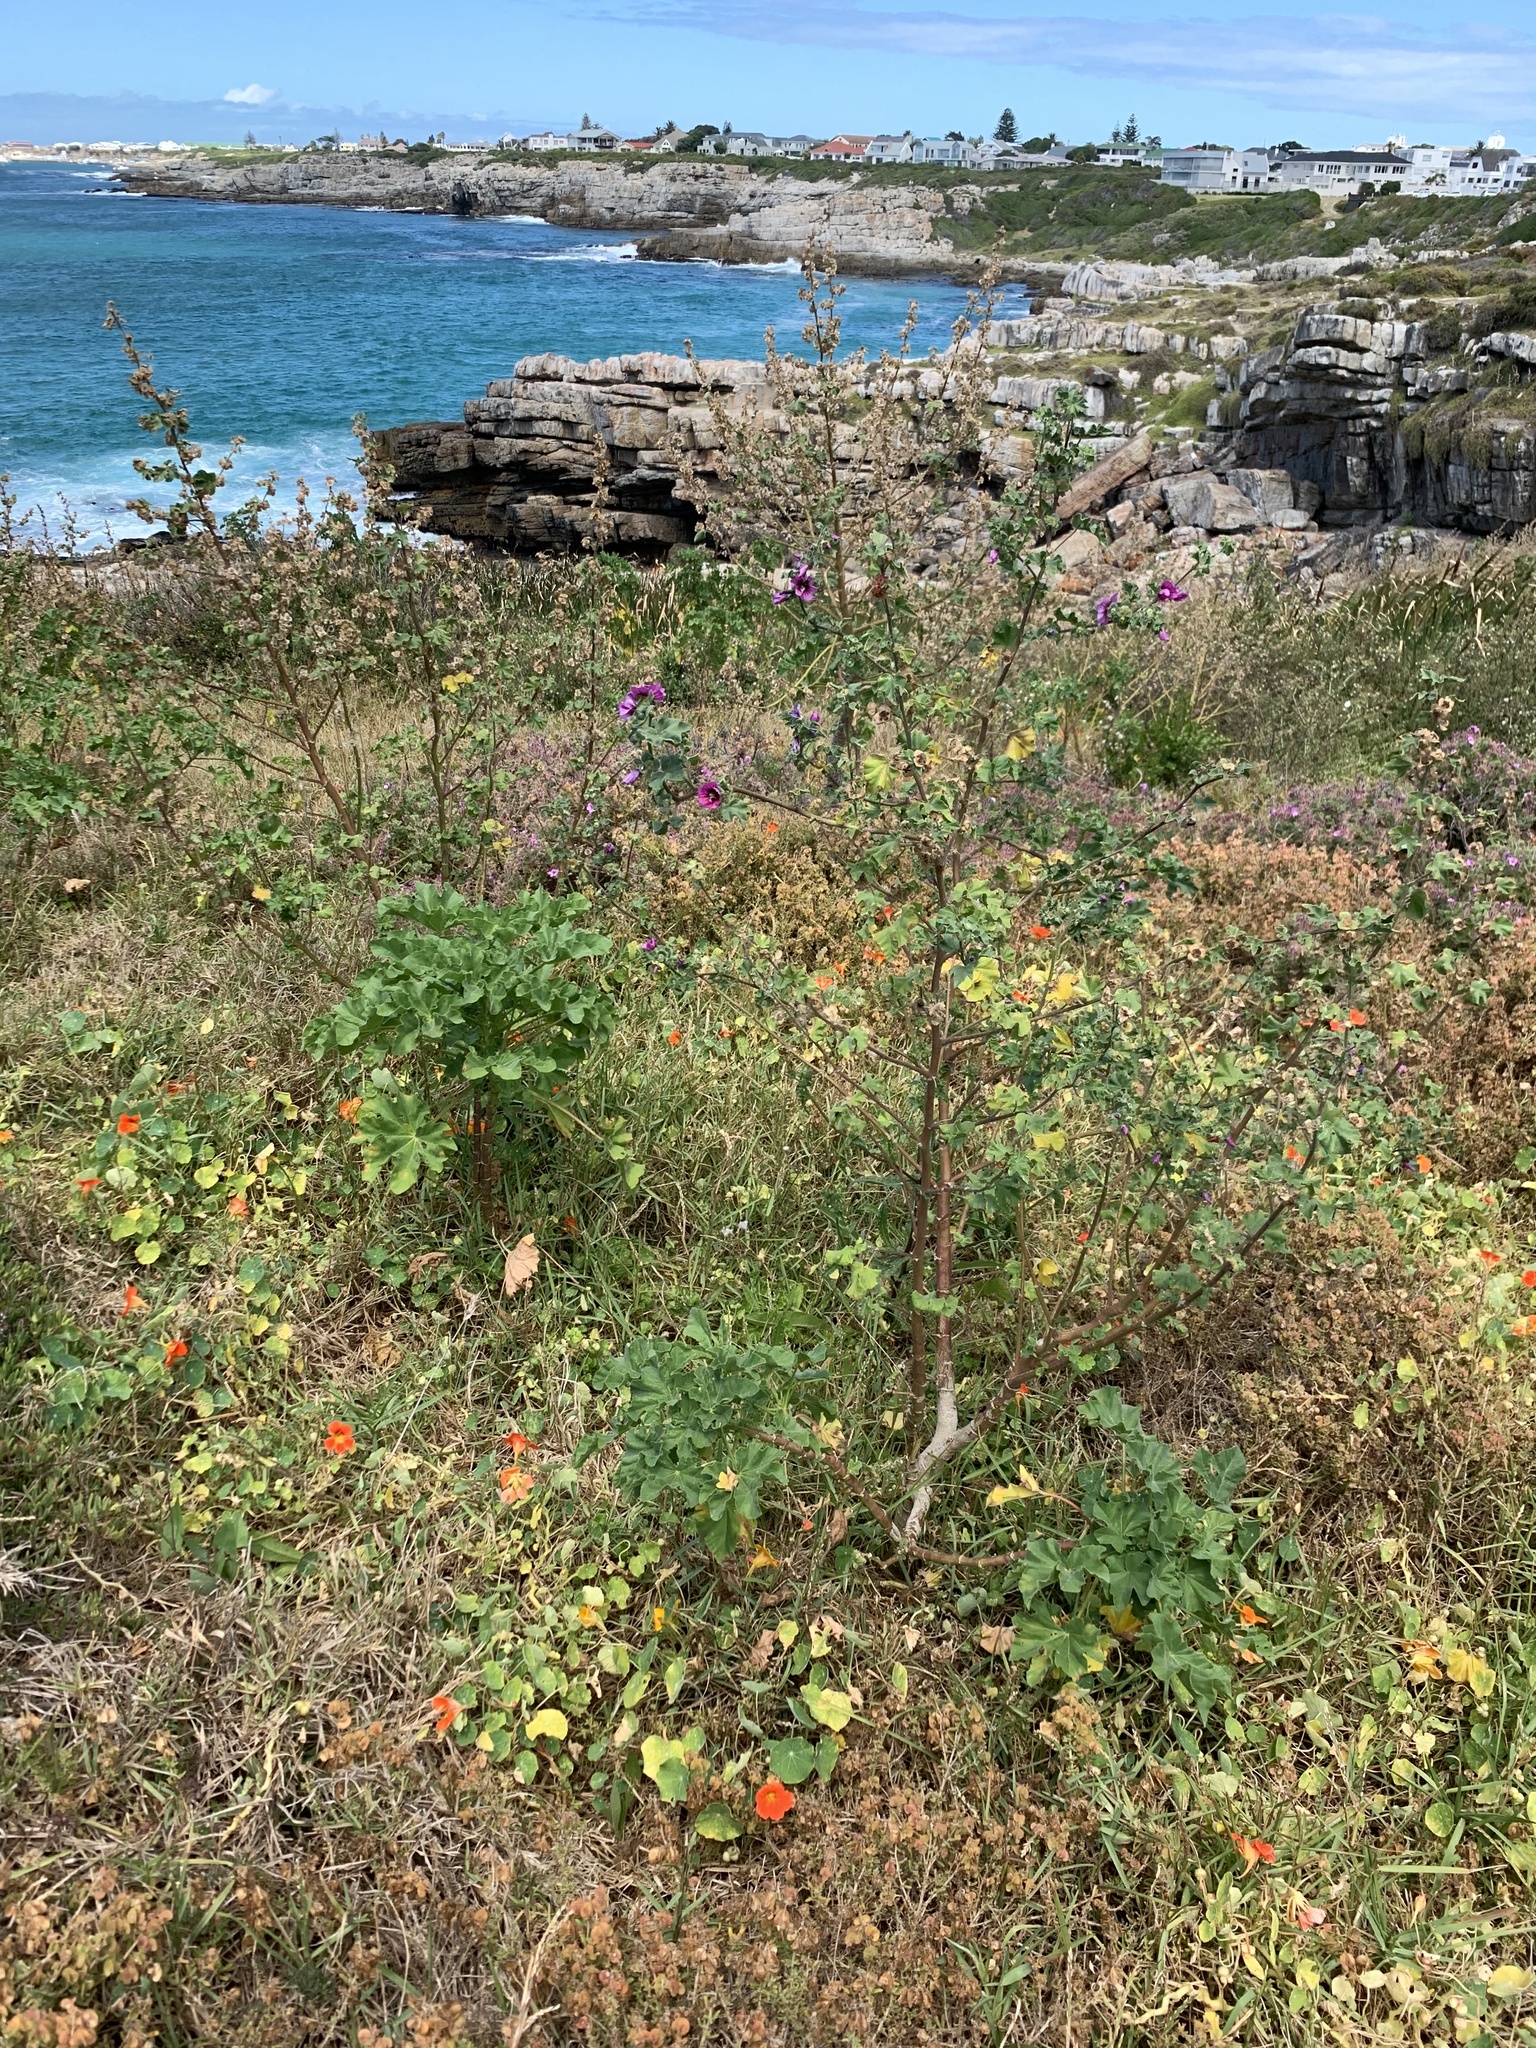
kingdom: Plantae
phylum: Tracheophyta
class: Magnoliopsida
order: Malvales
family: Malvaceae
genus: Malva
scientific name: Malva arborea
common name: Tree mallow
